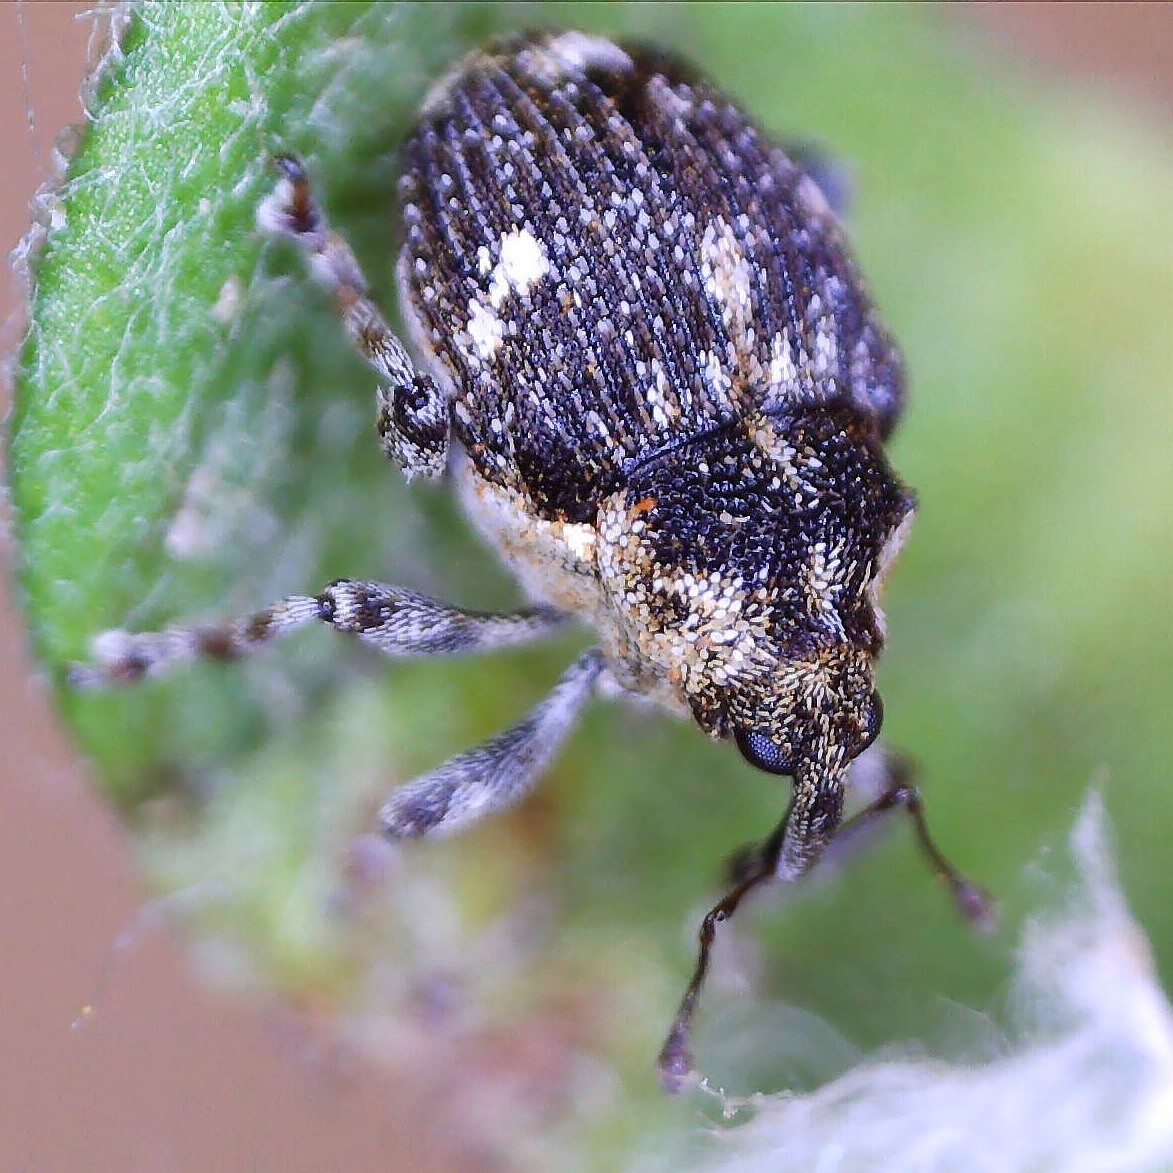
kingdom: Animalia
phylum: Arthropoda
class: Insecta
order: Coleoptera
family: Curculionidae
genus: Nedyus
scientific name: Nedyus quadrimaculatus
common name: Small nettle weevil
